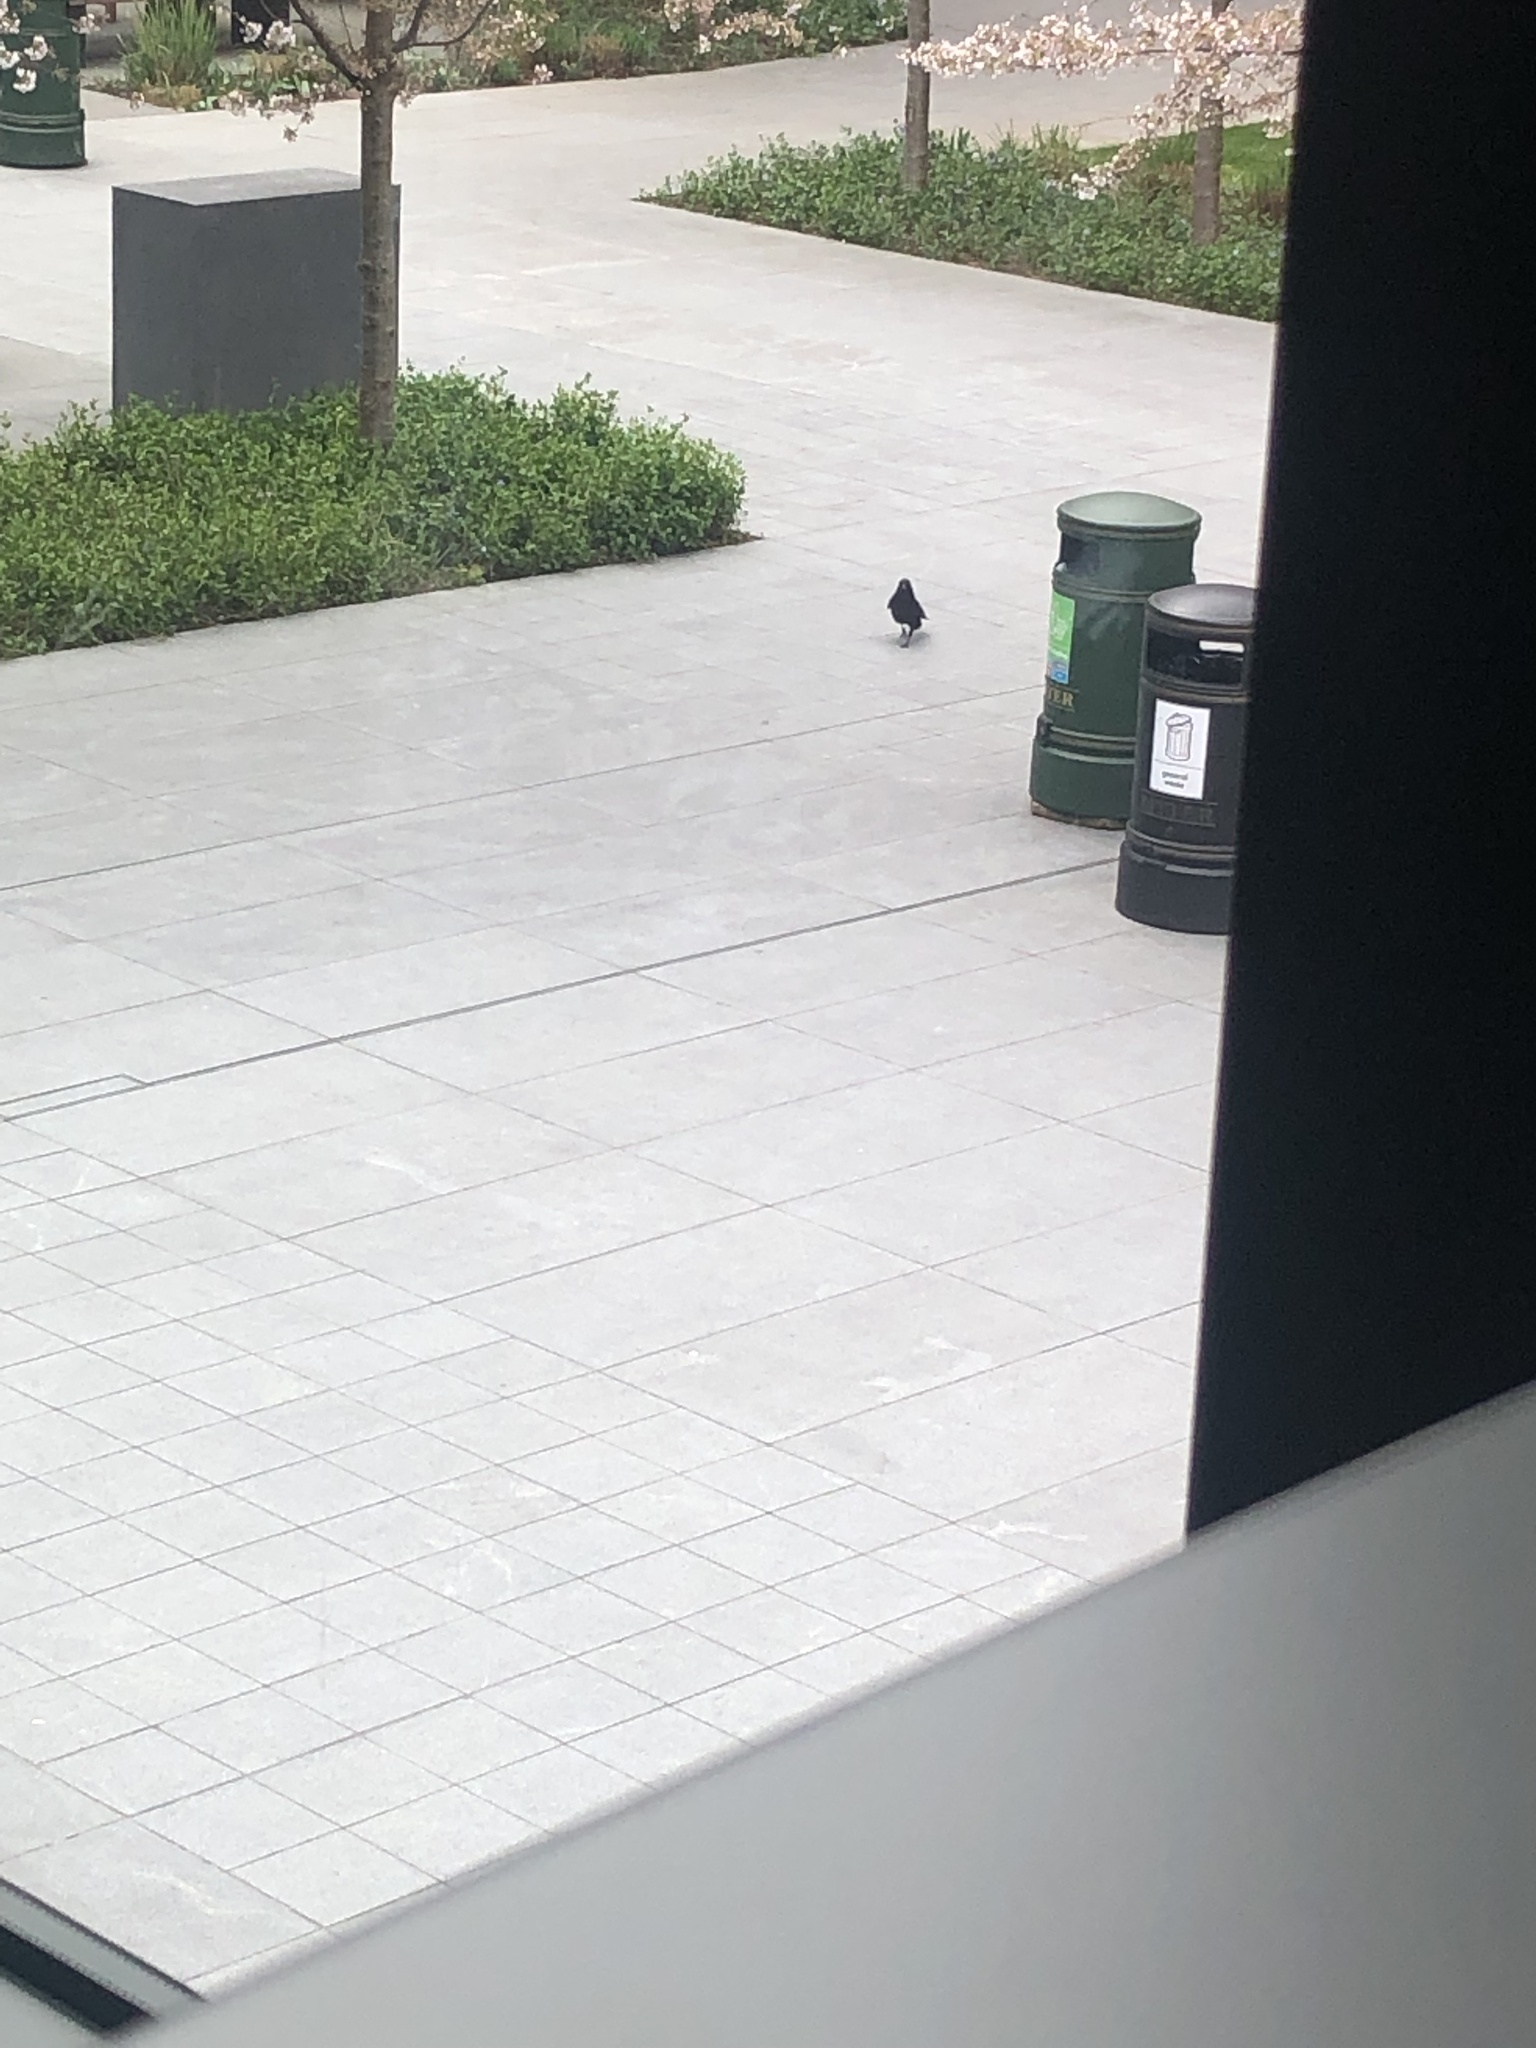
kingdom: Animalia
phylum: Chordata
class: Aves
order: Passeriformes
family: Corvidae
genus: Corvus
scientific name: Corvus corone
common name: Carrion crow
